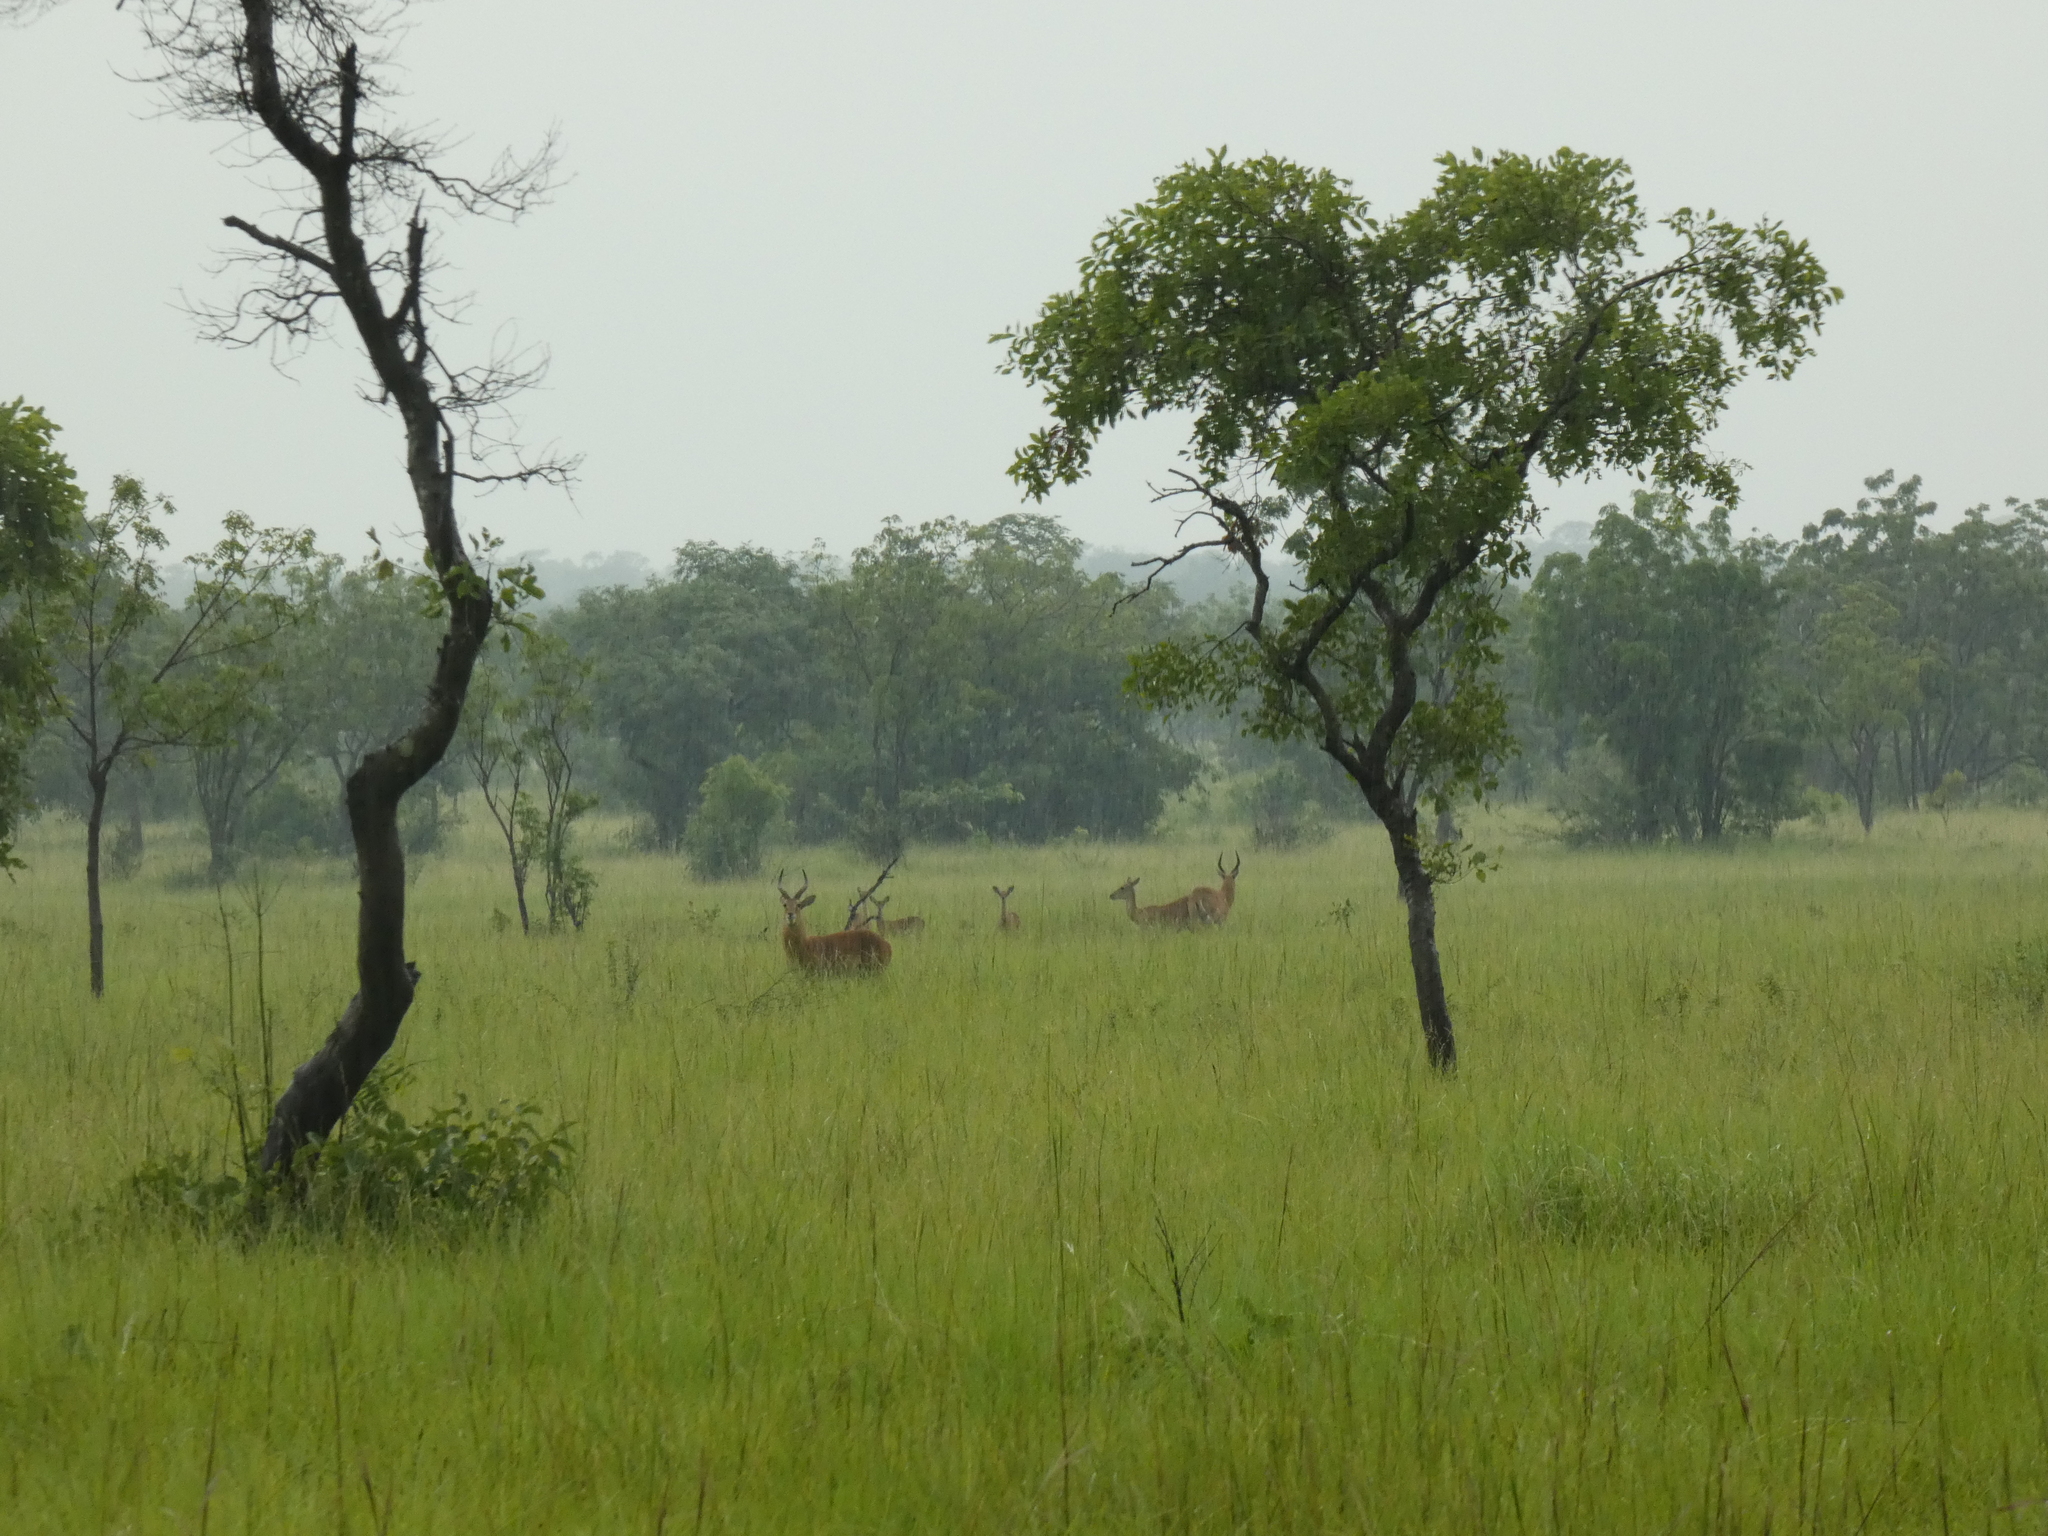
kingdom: Animalia
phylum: Chordata
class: Mammalia
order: Artiodactyla
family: Bovidae
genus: Kobus
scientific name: Kobus kob
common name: Kob
